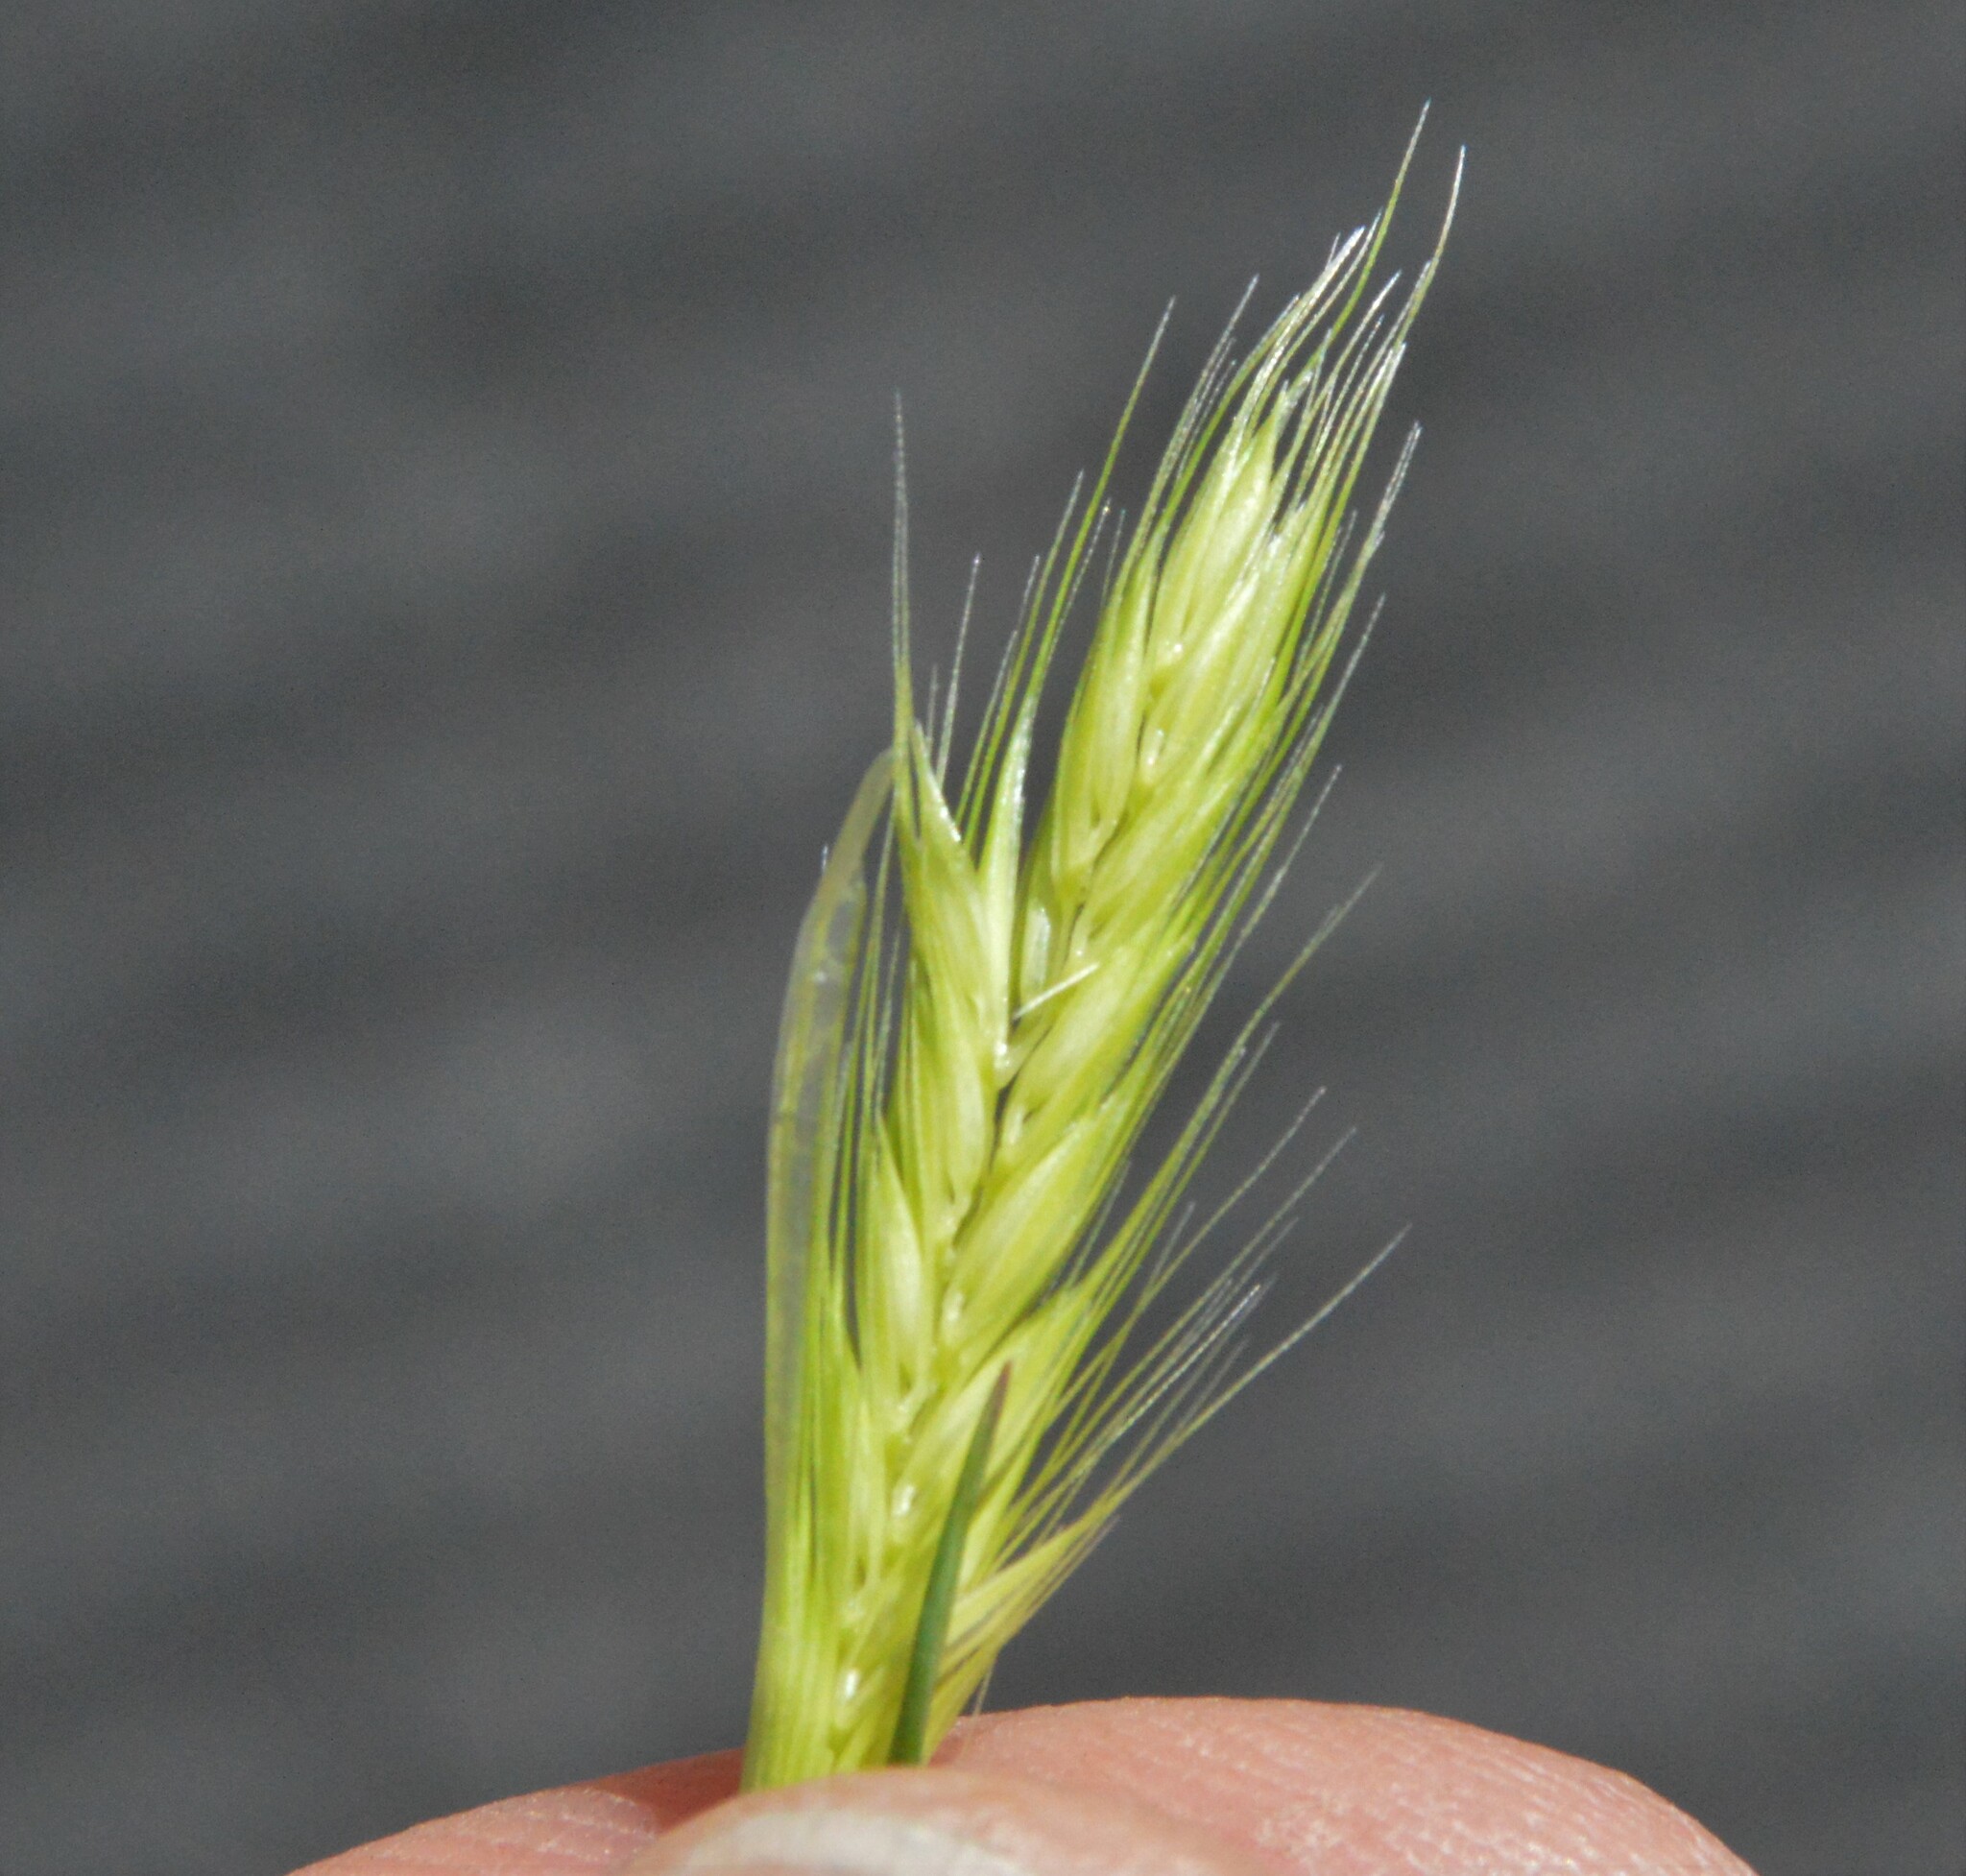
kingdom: Plantae
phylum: Tracheophyta
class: Liliopsida
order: Poales
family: Poaceae
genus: Hordeum
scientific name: Hordeum pusillum
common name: Little barley
